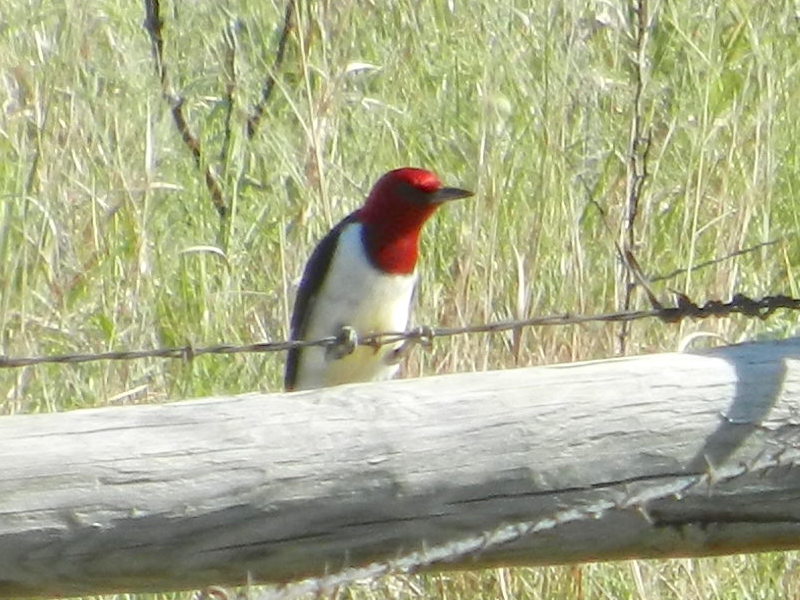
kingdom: Animalia
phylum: Chordata
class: Aves
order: Piciformes
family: Picidae
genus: Melanerpes
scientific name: Melanerpes erythrocephalus
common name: Red-headed woodpecker
